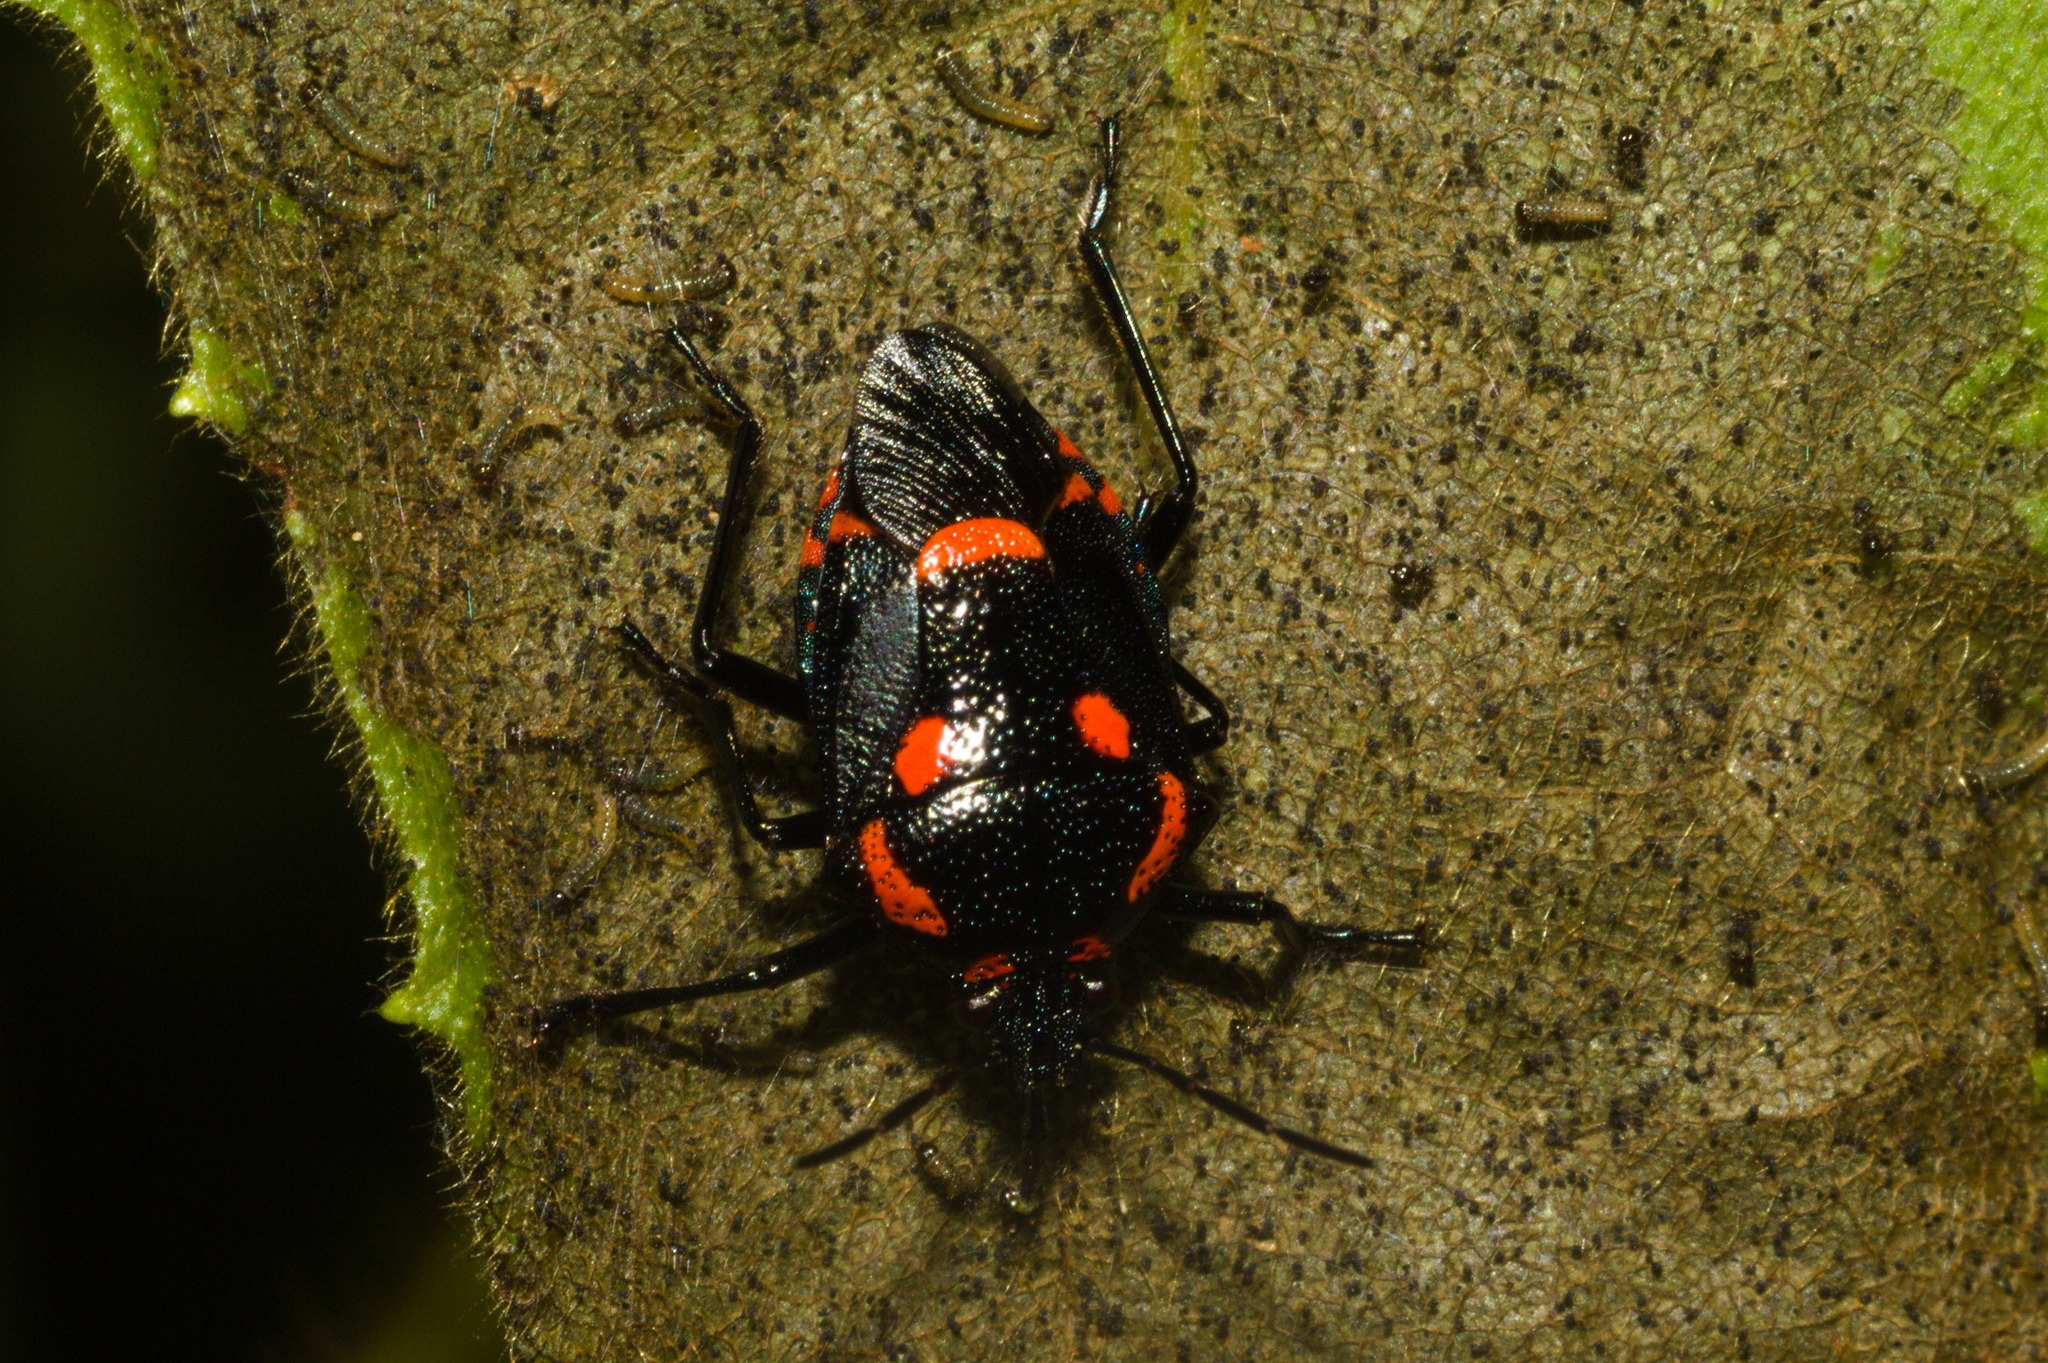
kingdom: Animalia
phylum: Arthropoda
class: Insecta
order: Hemiptera
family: Pentatomidae
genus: Oplomus
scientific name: Oplomus catena
